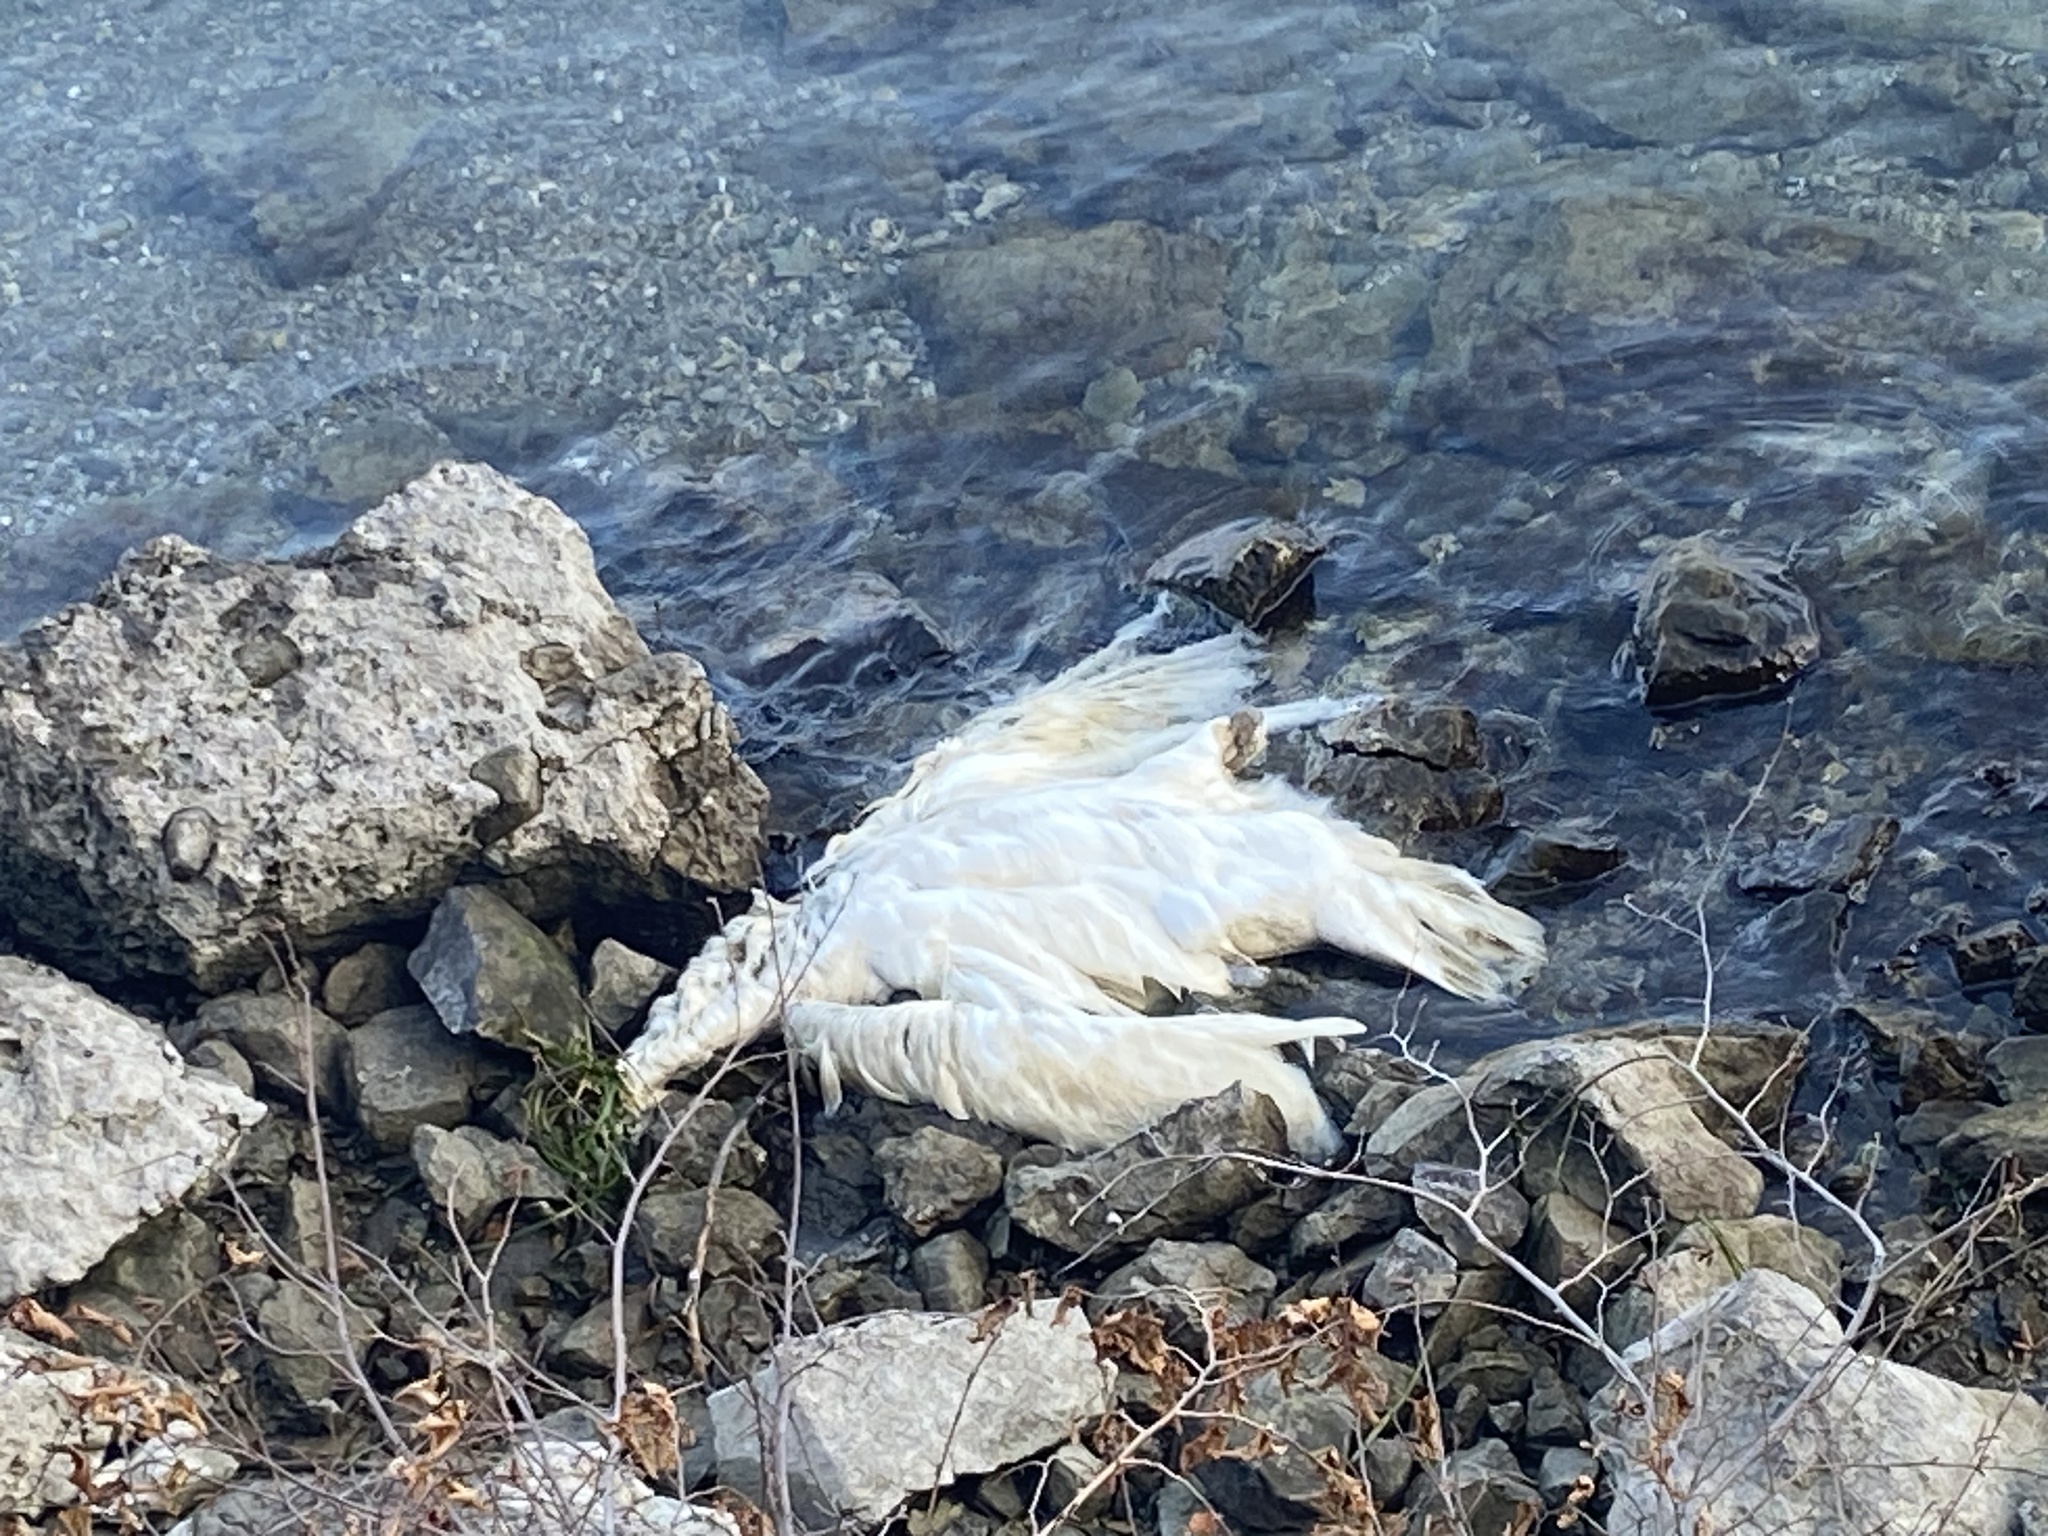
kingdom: Animalia
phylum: Chordata
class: Aves
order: Anseriformes
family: Anatidae
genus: Cygnus
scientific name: Cygnus olor
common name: Mute swan
